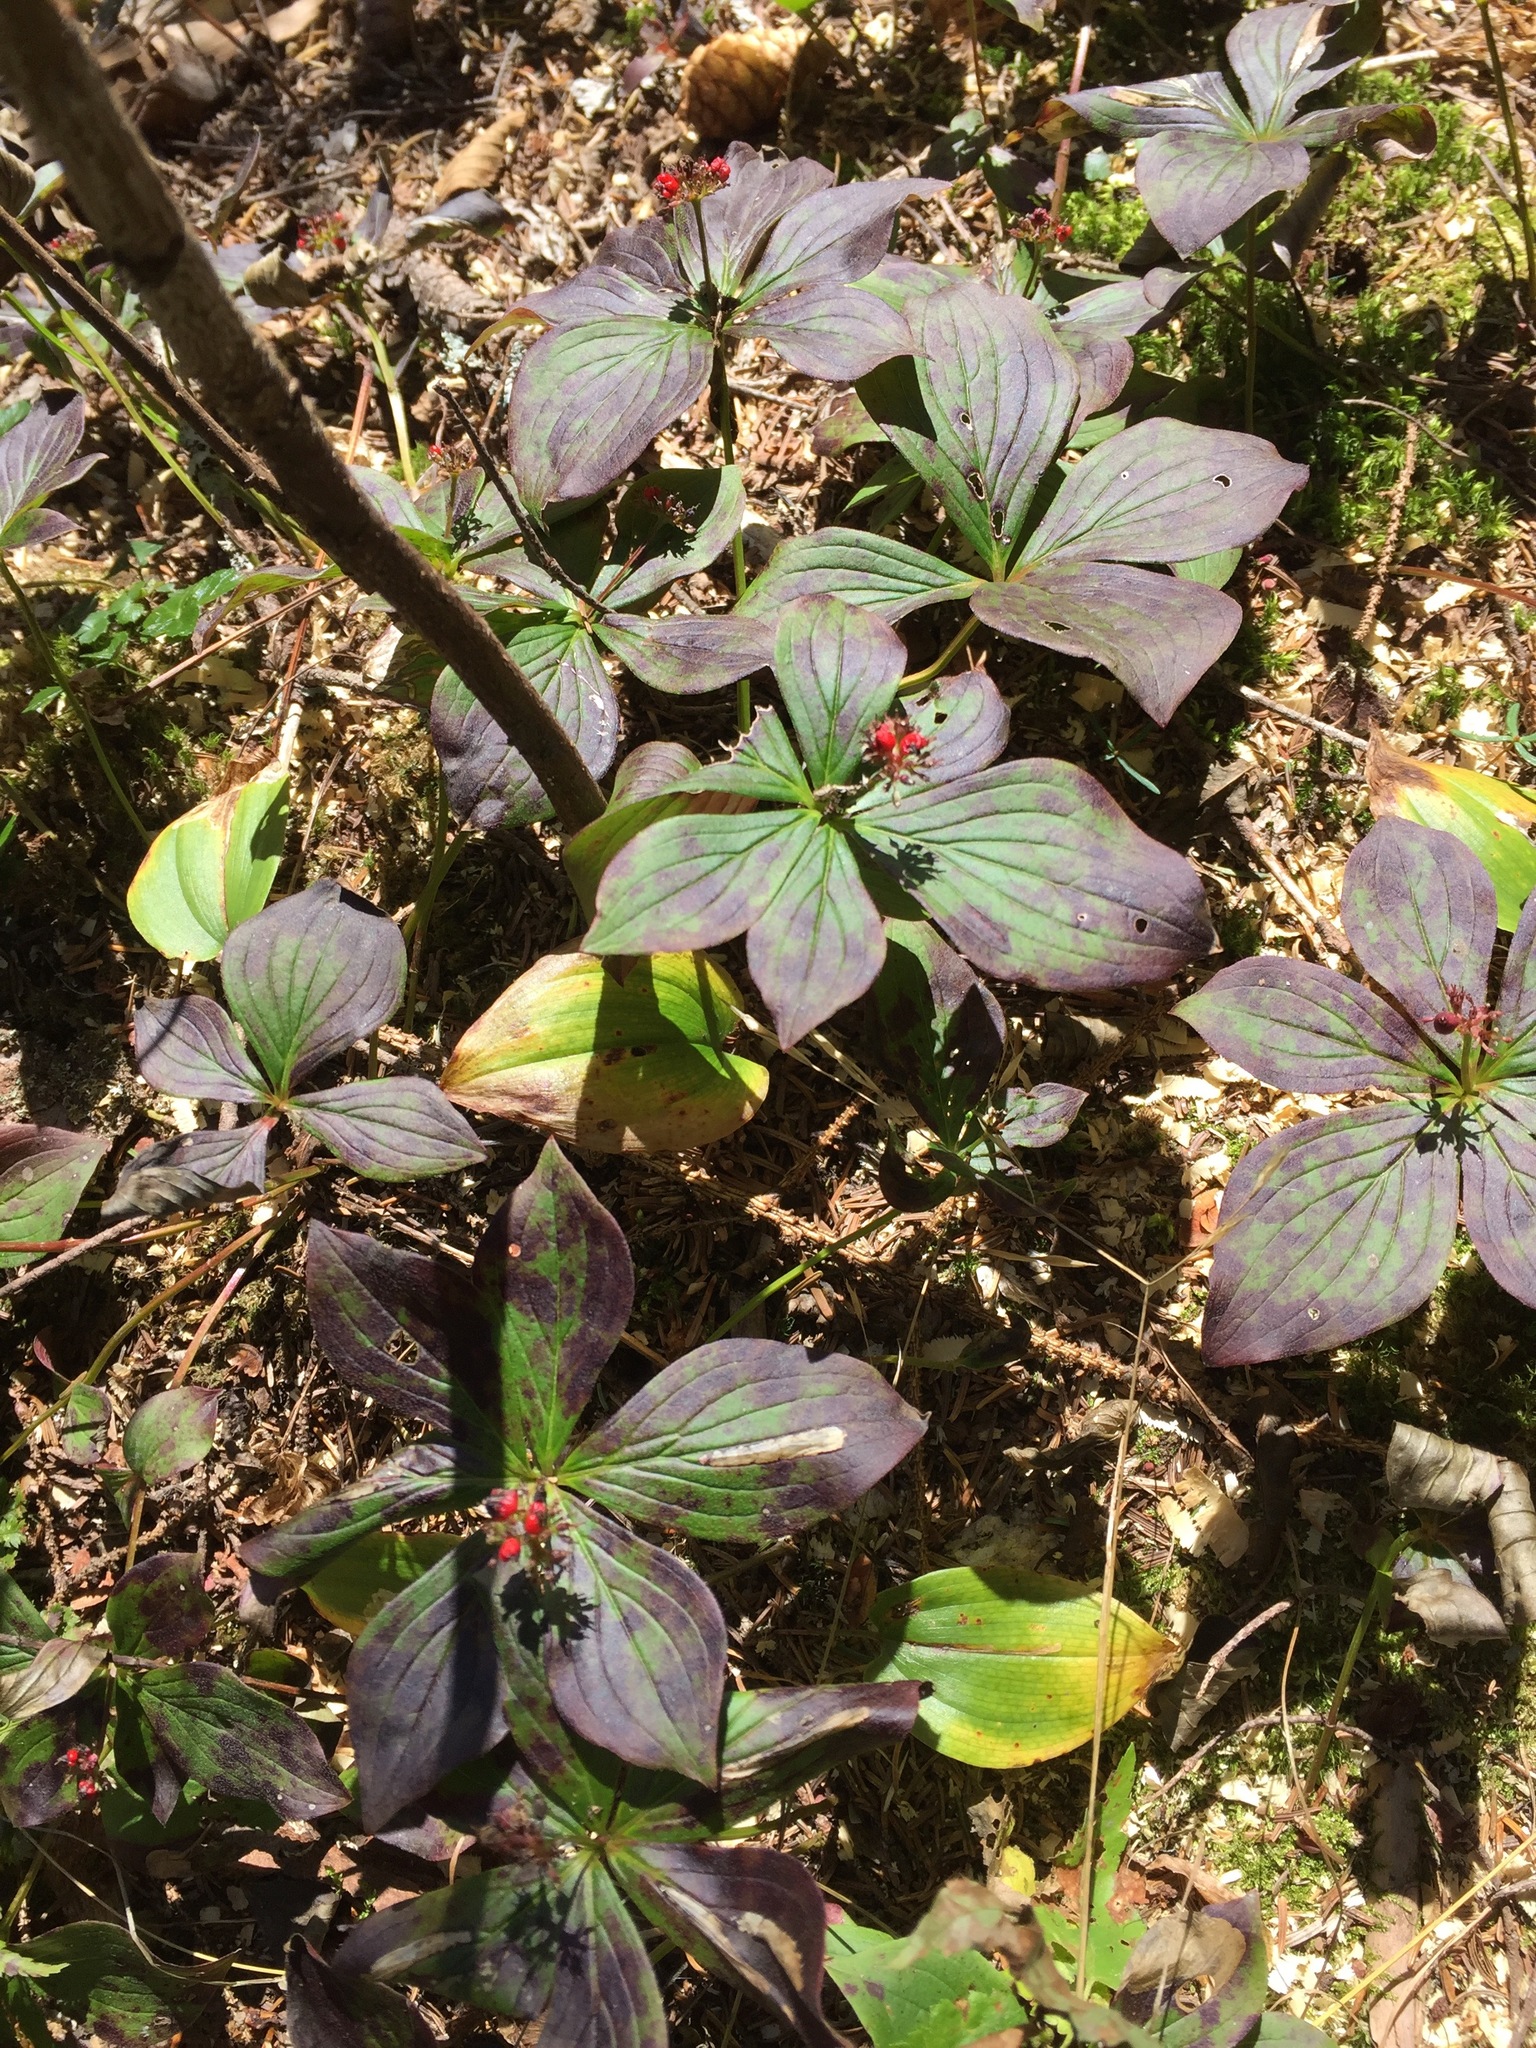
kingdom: Plantae
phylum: Tracheophyta
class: Magnoliopsida
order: Cornales
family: Cornaceae
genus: Cornus
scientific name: Cornus canadensis
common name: Creeping dogwood
